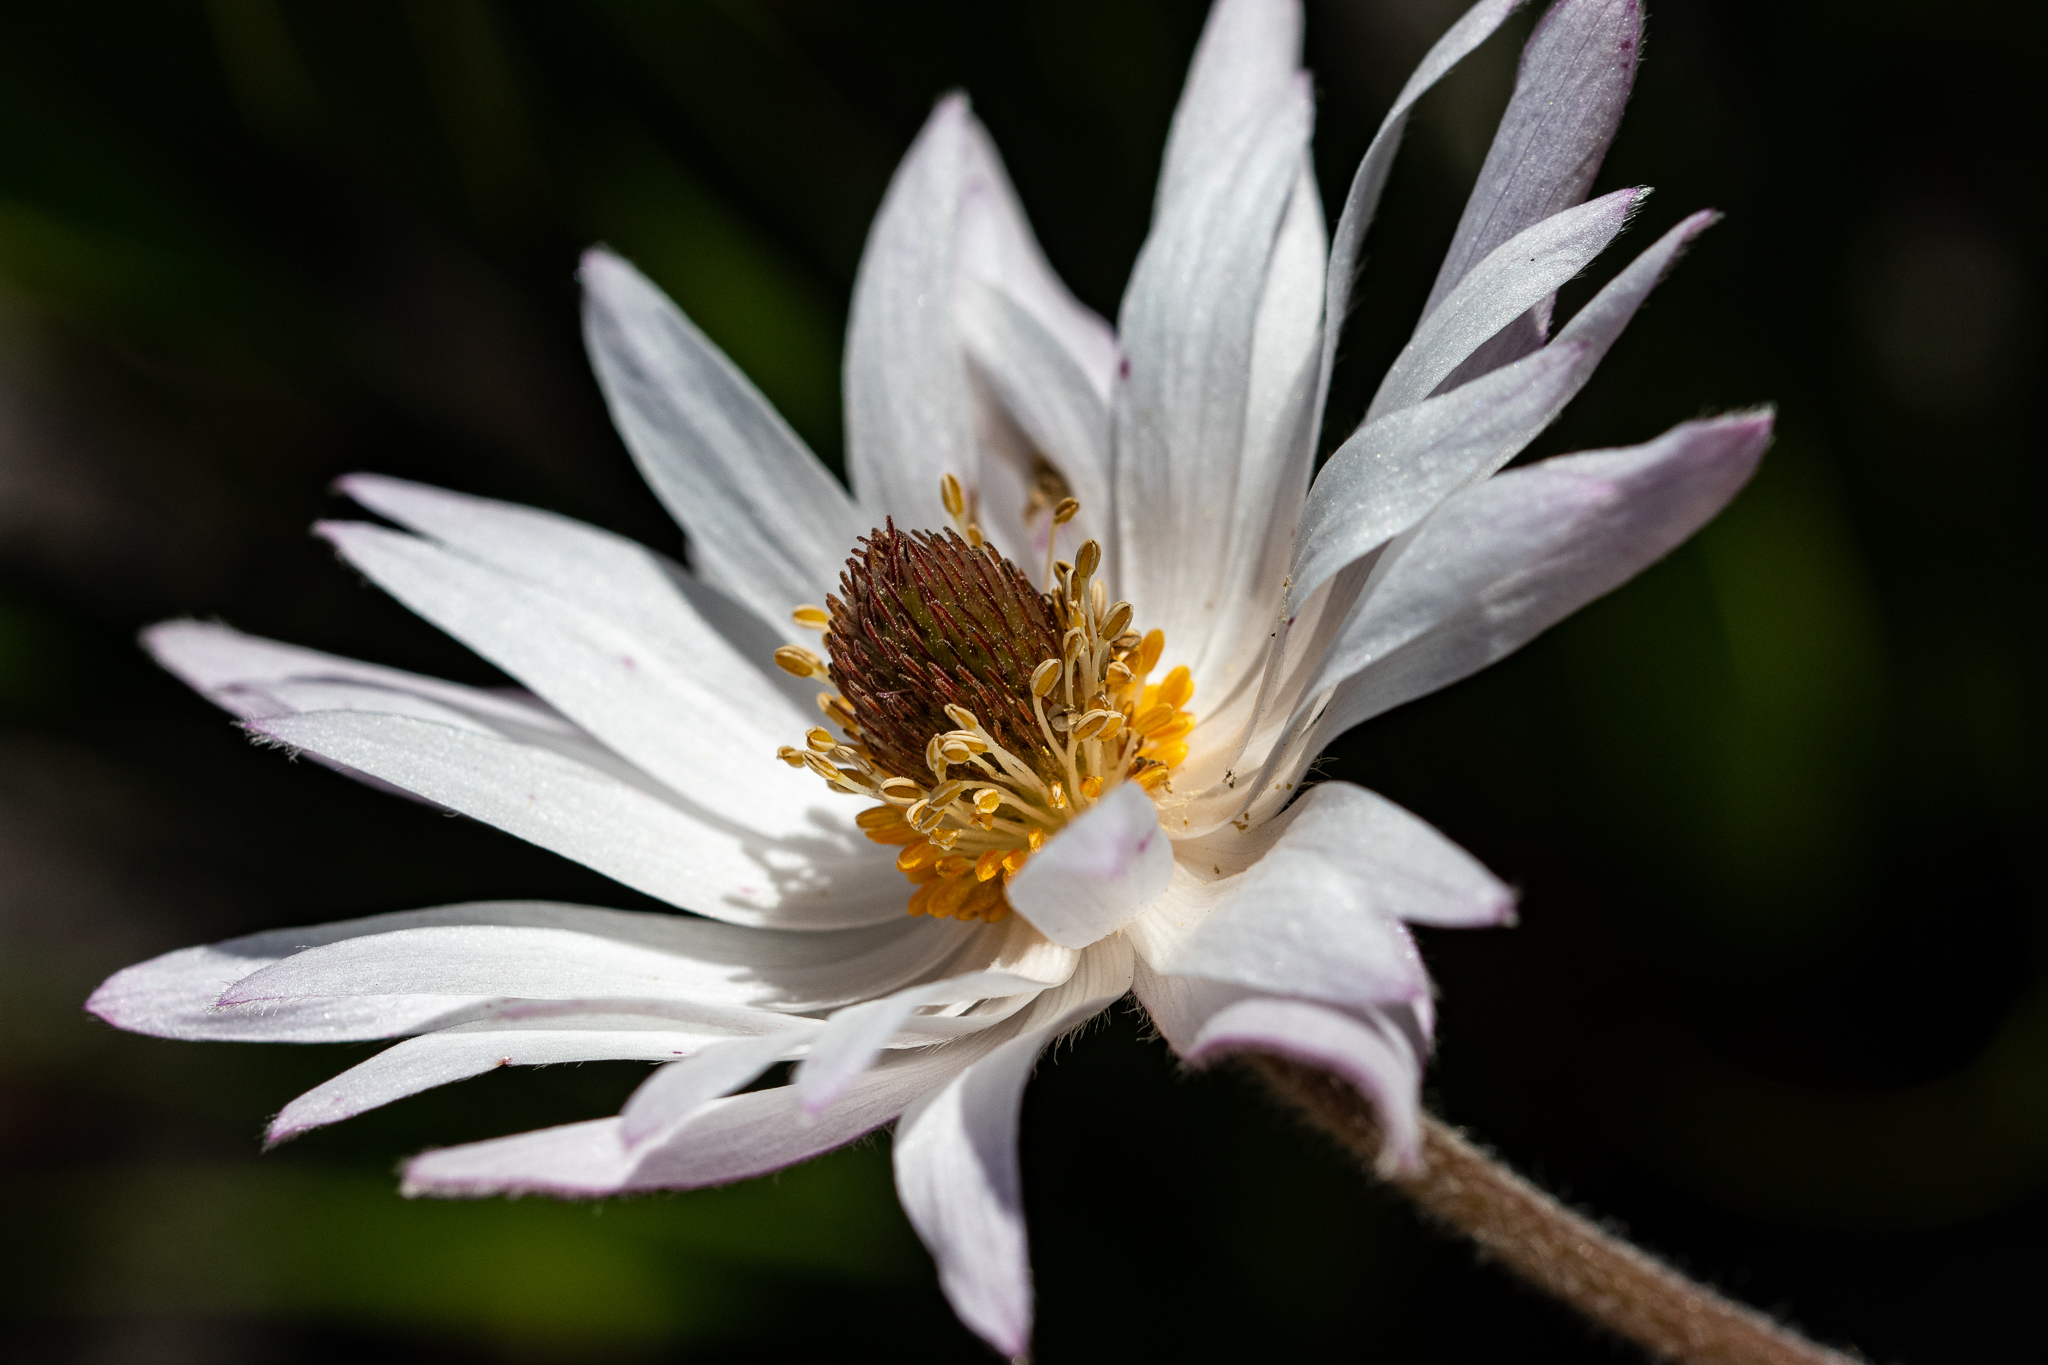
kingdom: Plantae
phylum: Tracheophyta
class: Magnoliopsida
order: Ranunculales
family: Ranunculaceae
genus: Knowltonia
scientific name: Knowltonia tenuifolia
